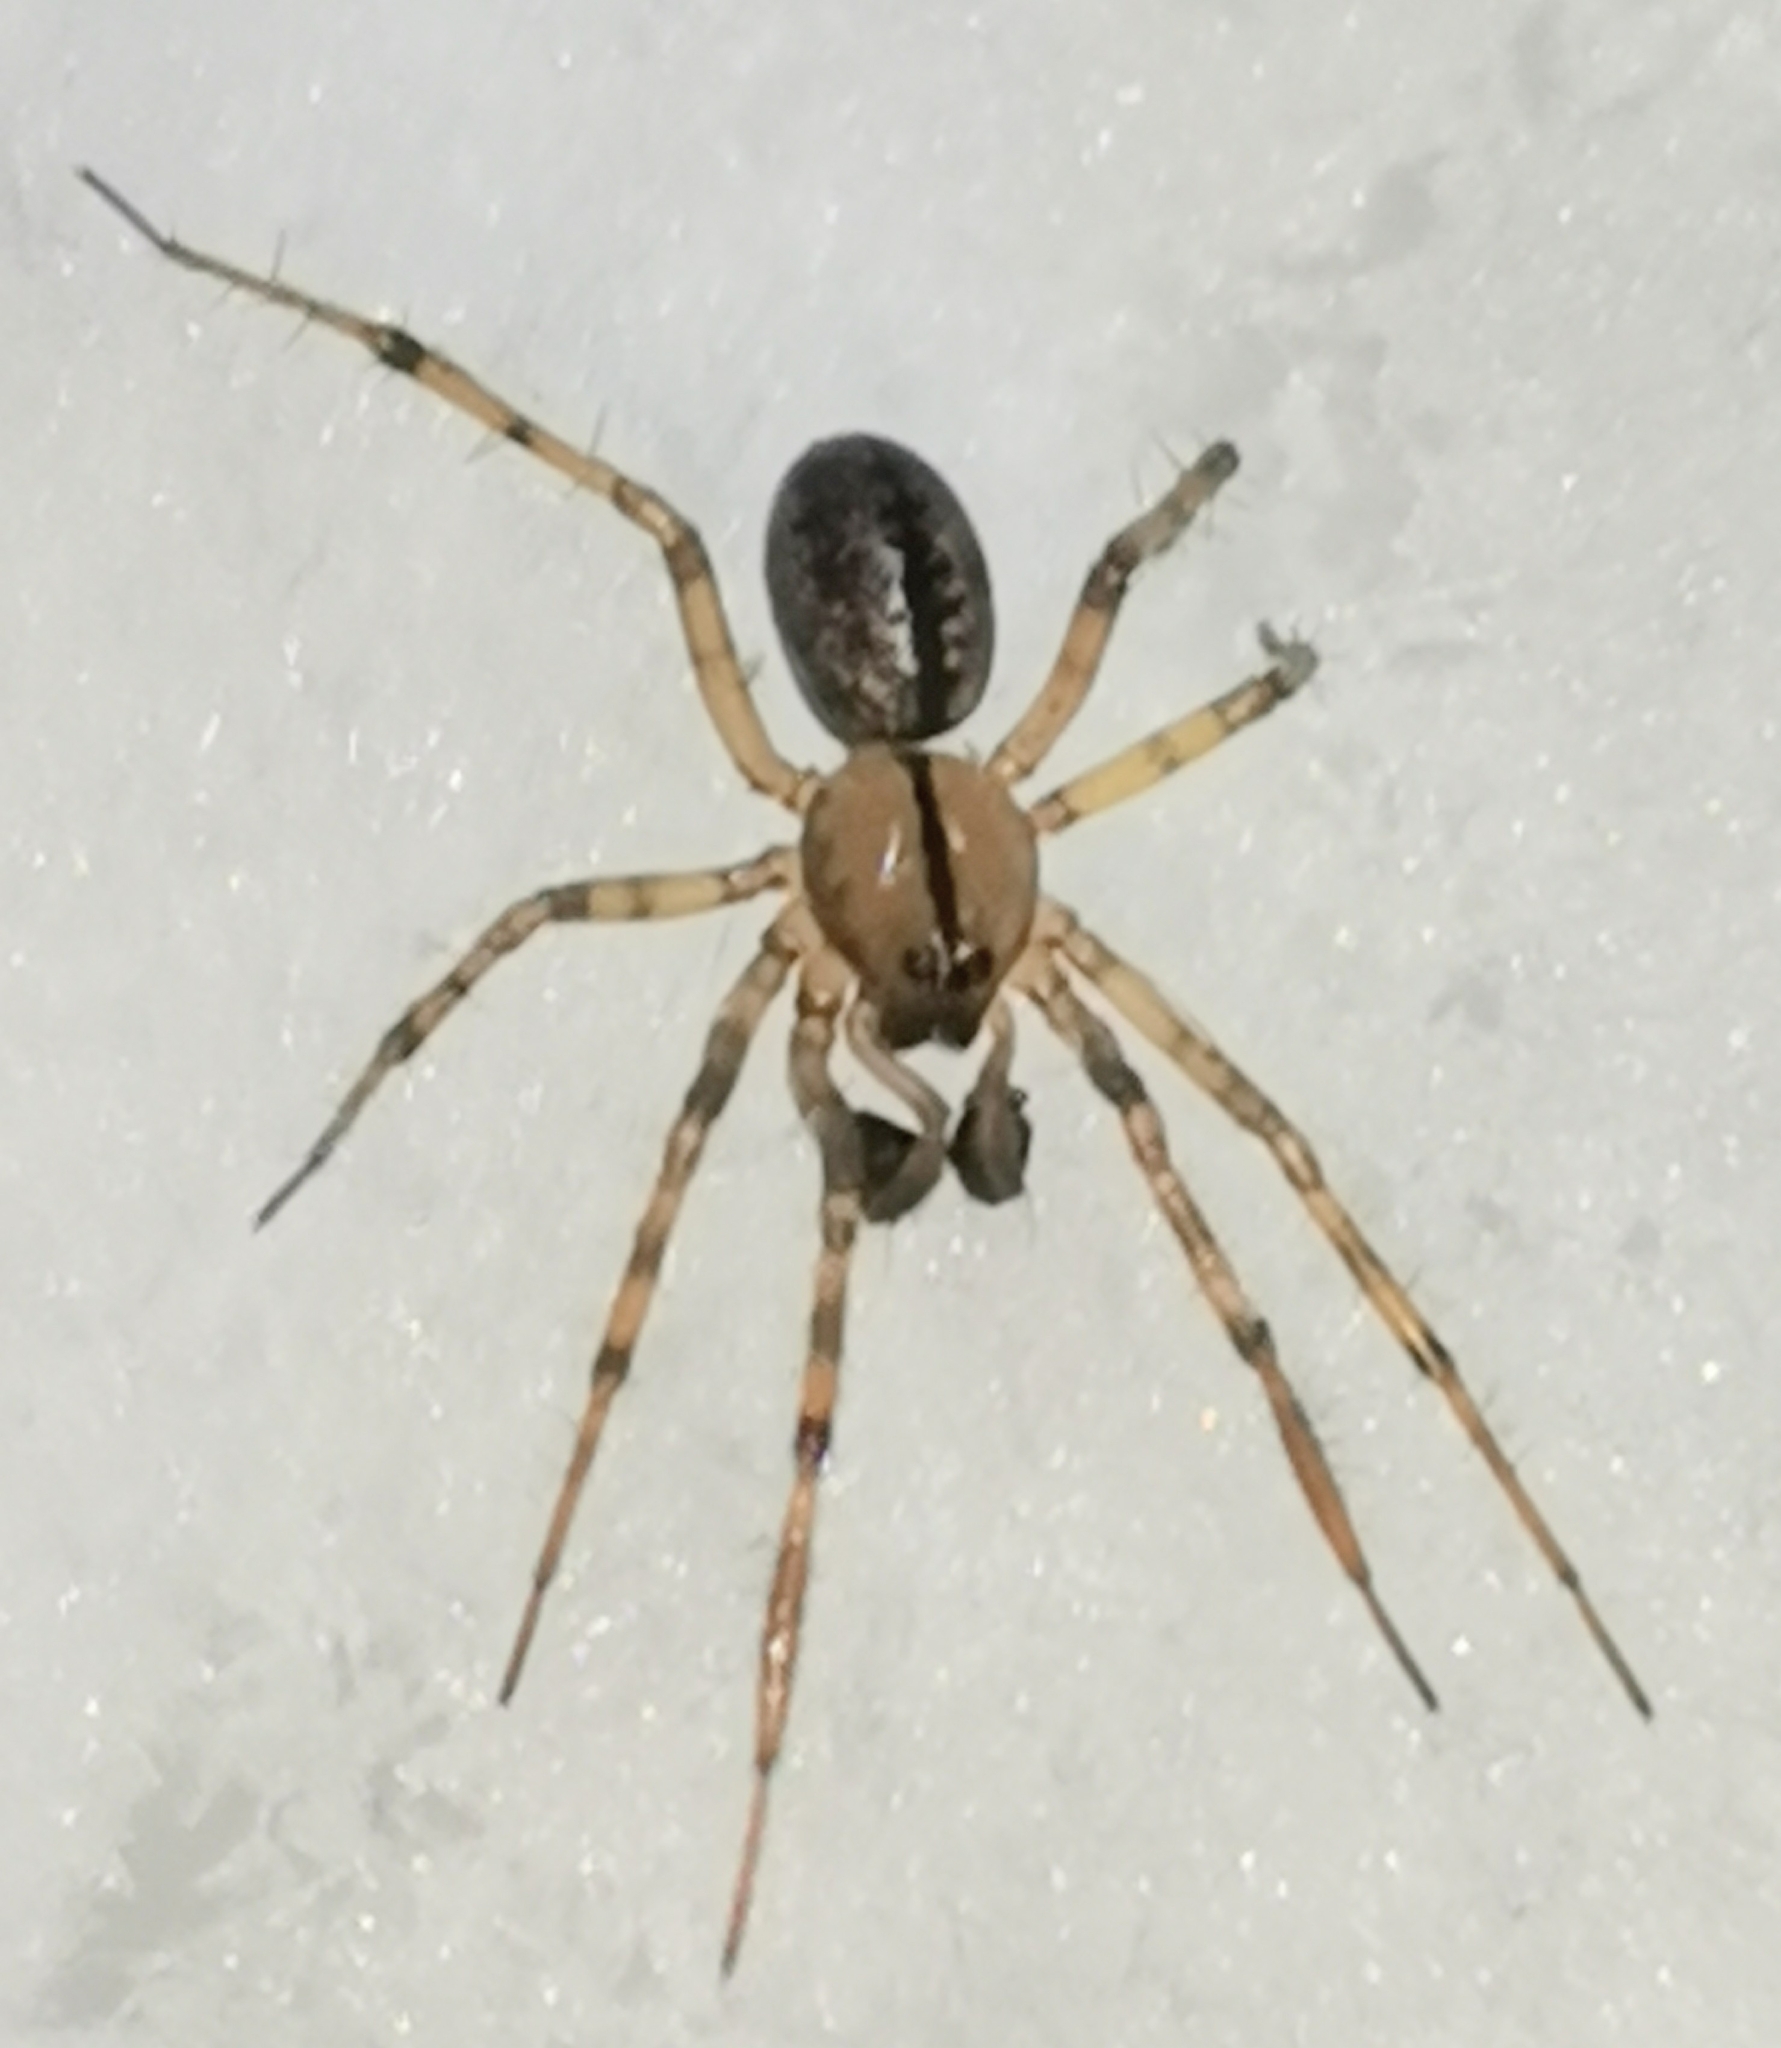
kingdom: Animalia
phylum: Arthropoda
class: Arachnida
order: Araneae
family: Linyphiidae
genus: Stemonyphantes
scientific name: Stemonyphantes lineatus
